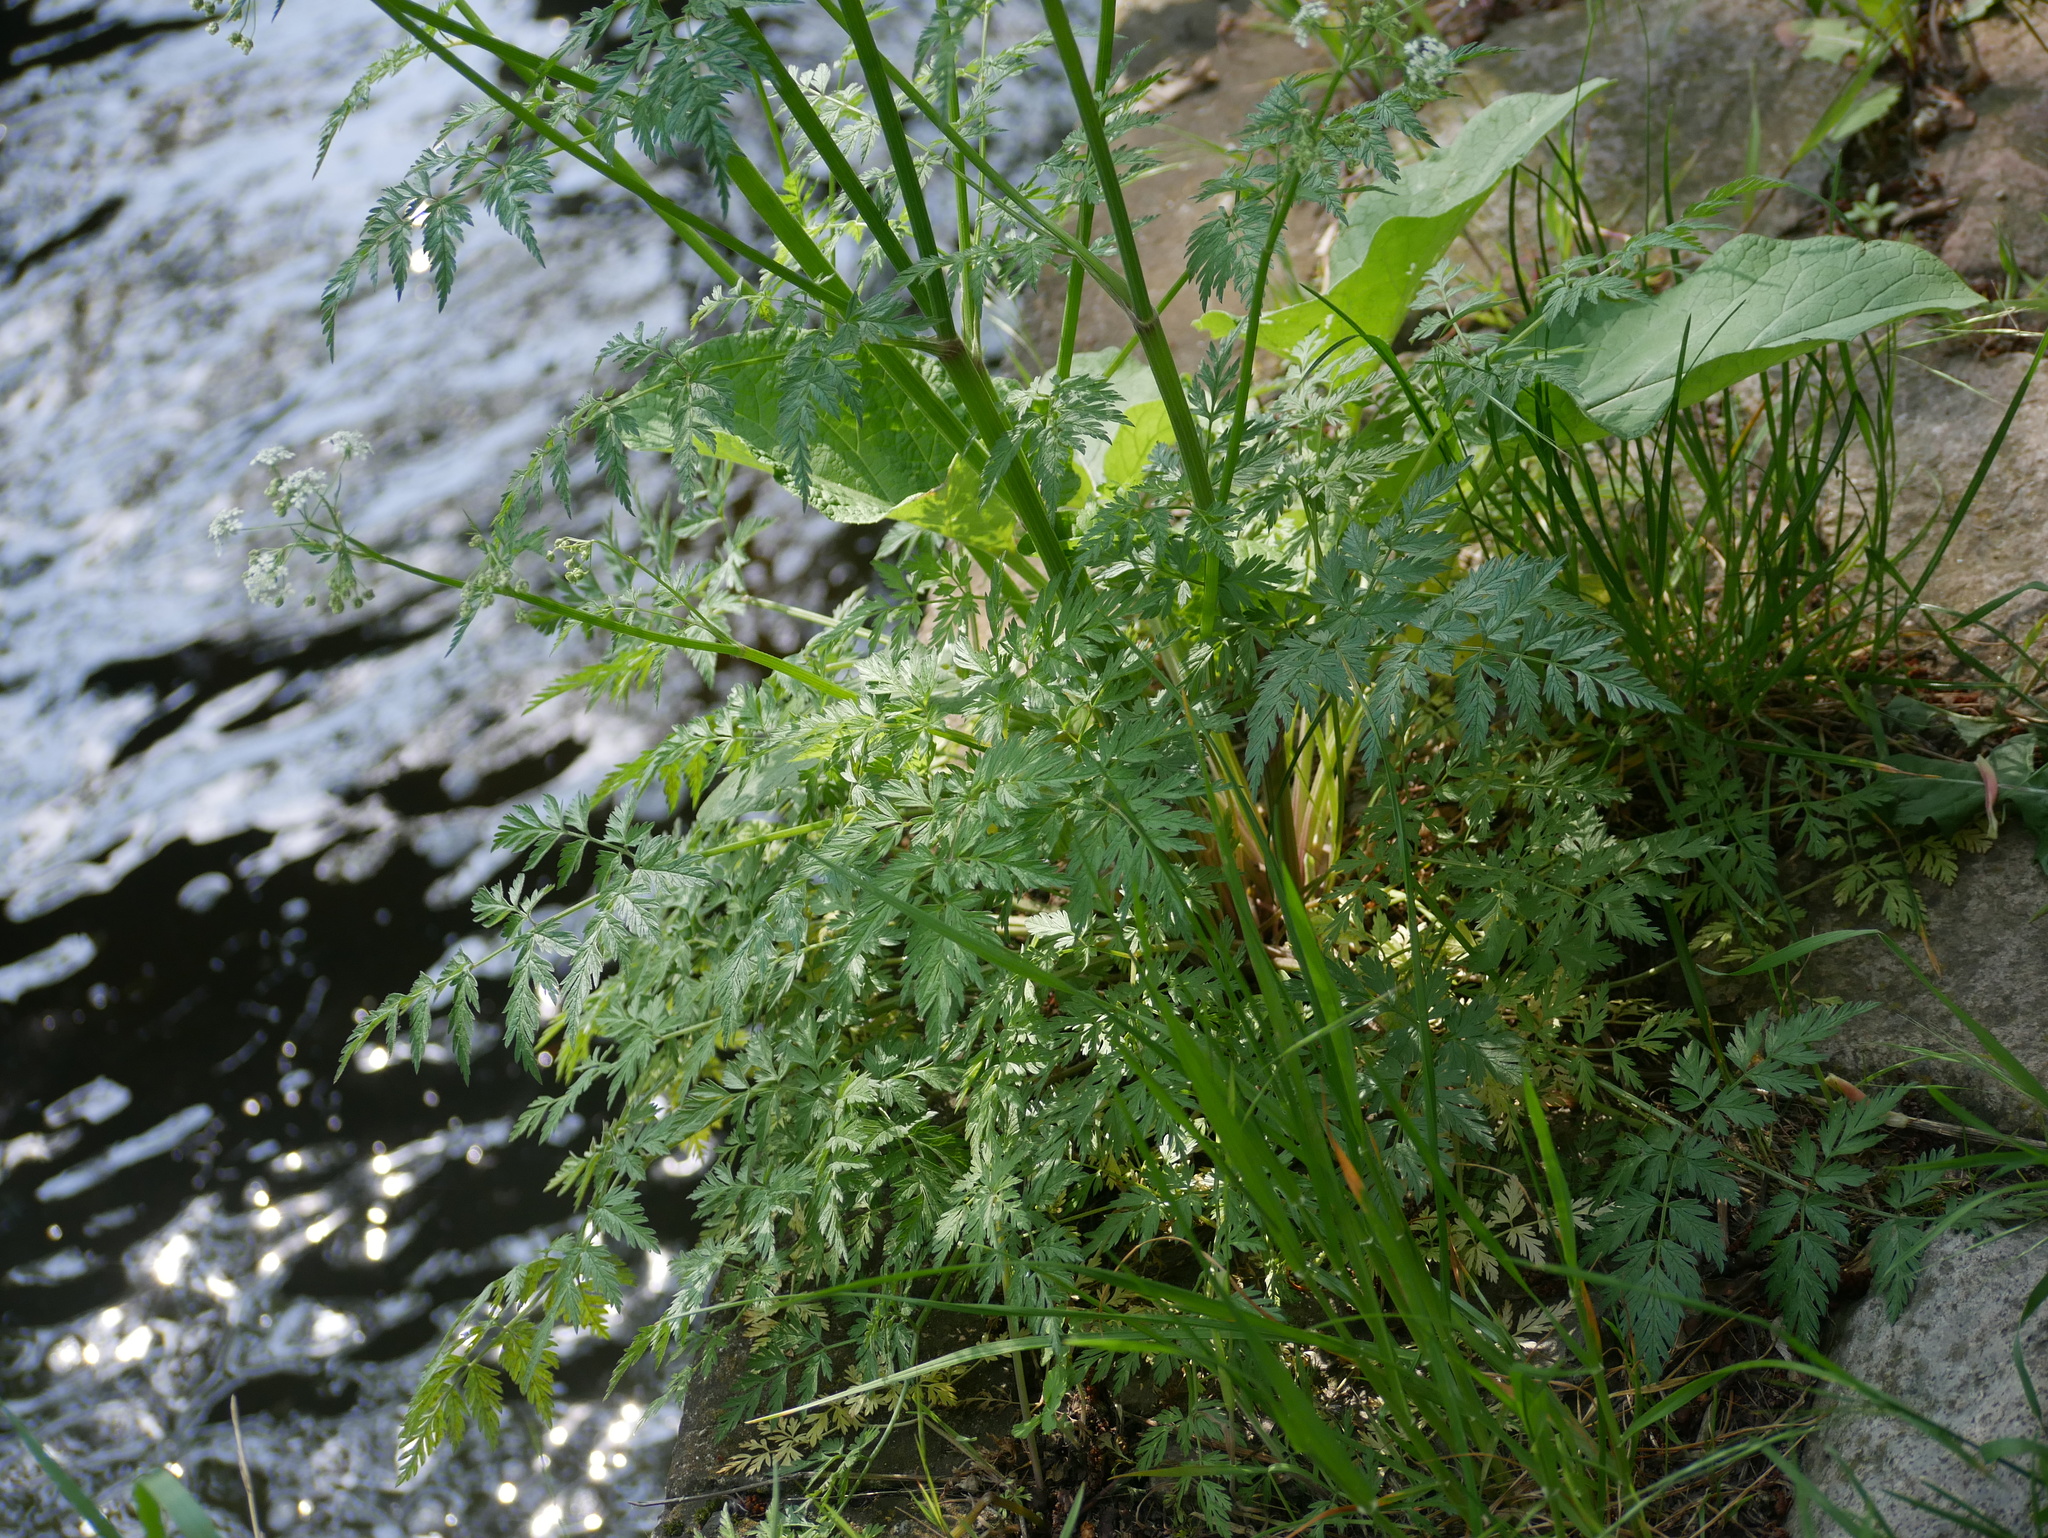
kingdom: Plantae
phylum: Tracheophyta
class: Magnoliopsida
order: Apiales
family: Apiaceae
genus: Anthriscus
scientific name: Anthriscus sylvestris
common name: Cow parsley
